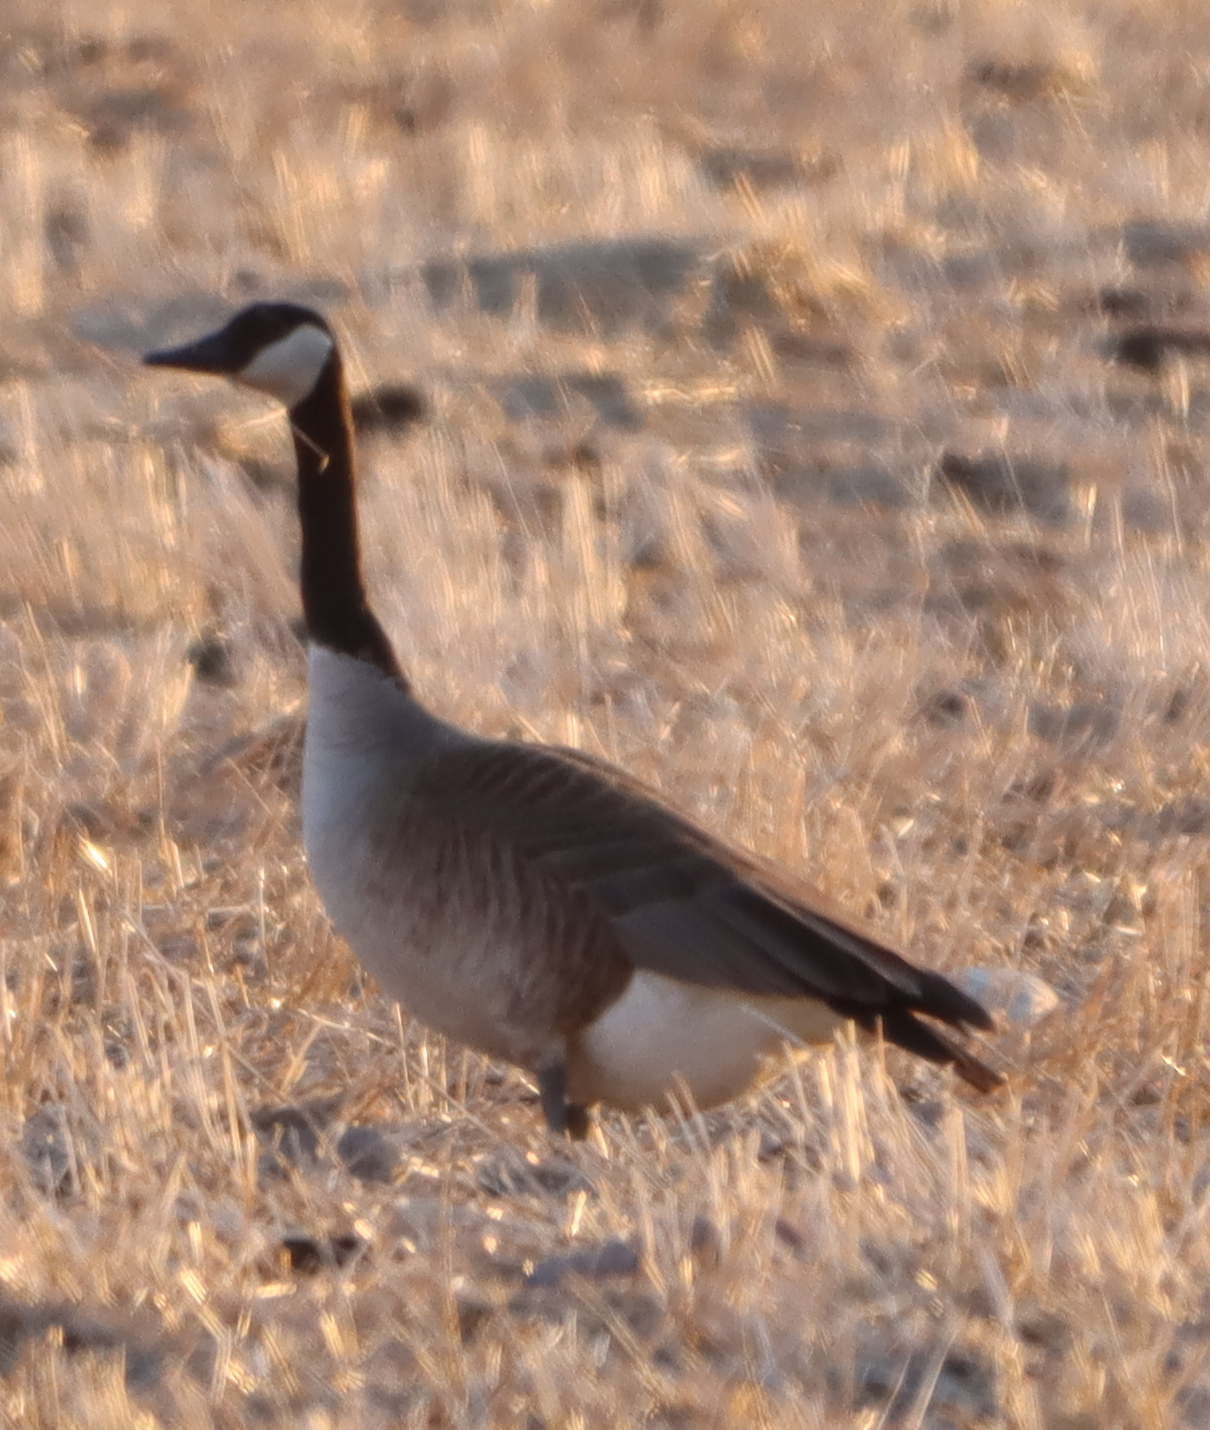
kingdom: Animalia
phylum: Chordata
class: Aves
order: Anseriformes
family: Anatidae
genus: Branta
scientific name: Branta canadensis
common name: Canada goose
